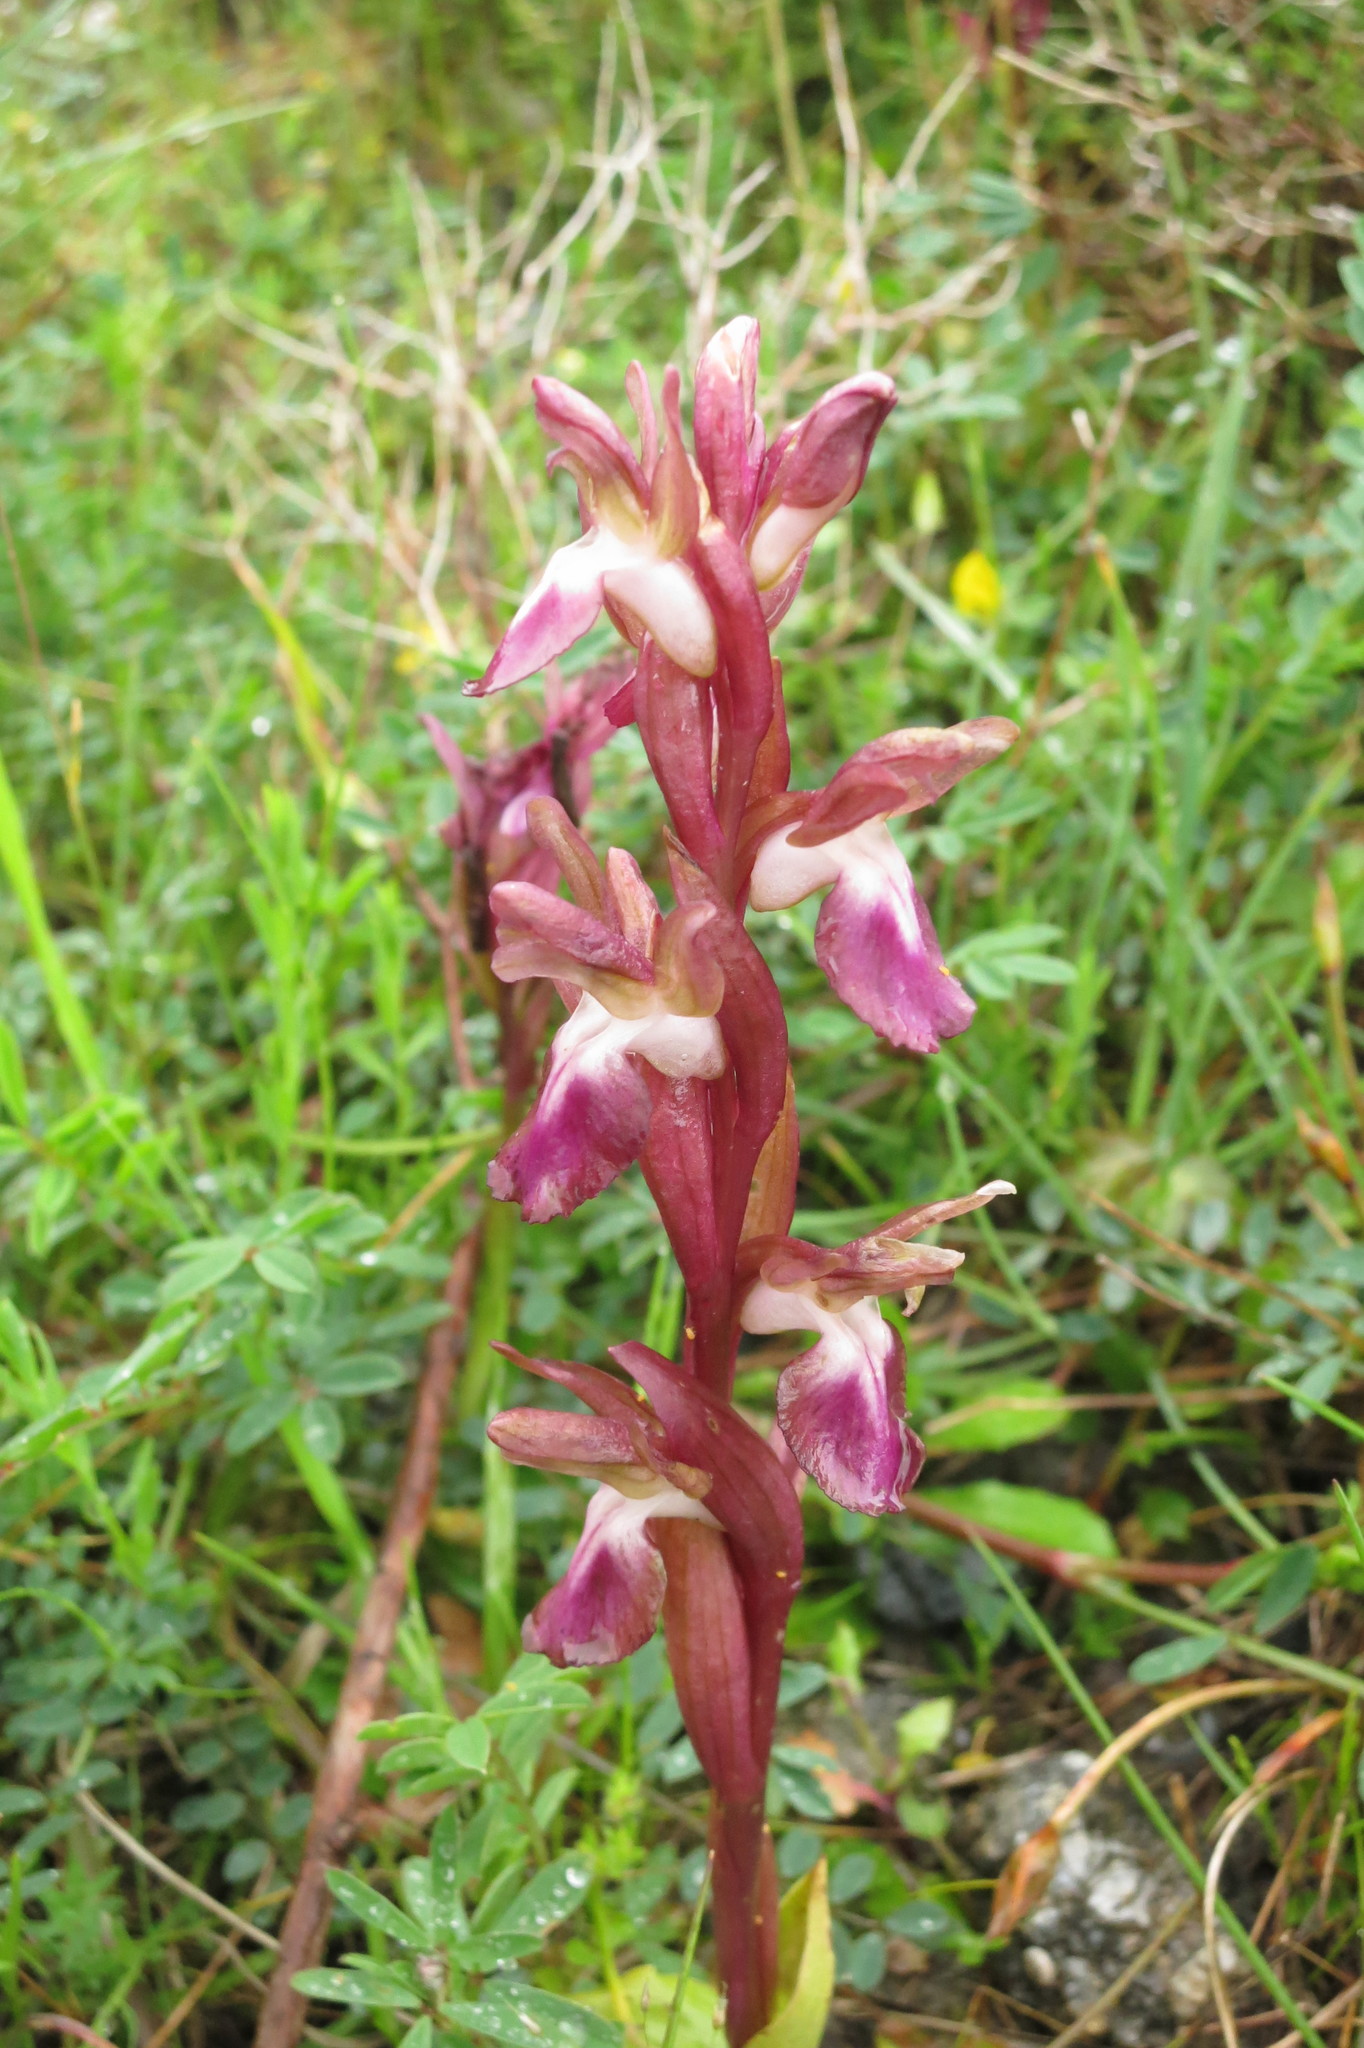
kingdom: Plantae
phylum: Tracheophyta
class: Liliopsida
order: Asparagales
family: Orchidaceae
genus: Anacamptis
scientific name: Anacamptis collina
